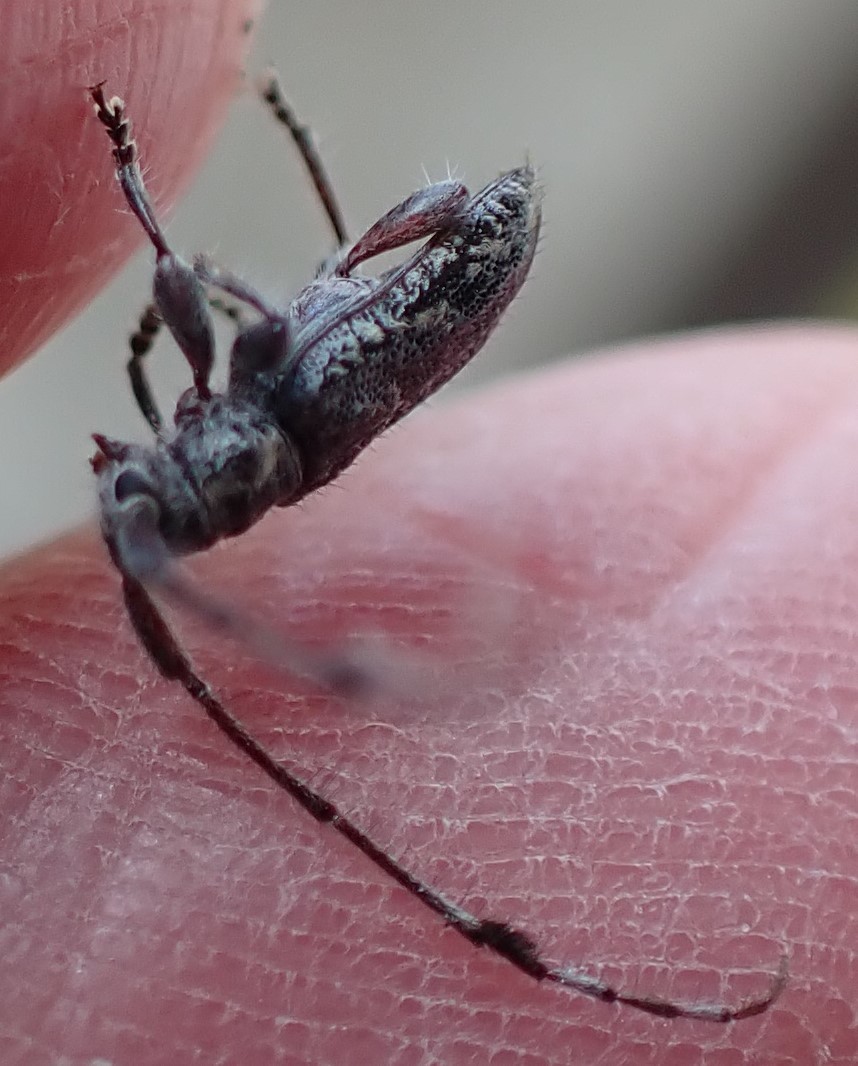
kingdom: Animalia
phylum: Arthropoda
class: Insecta
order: Coleoptera
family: Cerambycidae
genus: Hebecerus
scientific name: Hebecerus marginicollis
